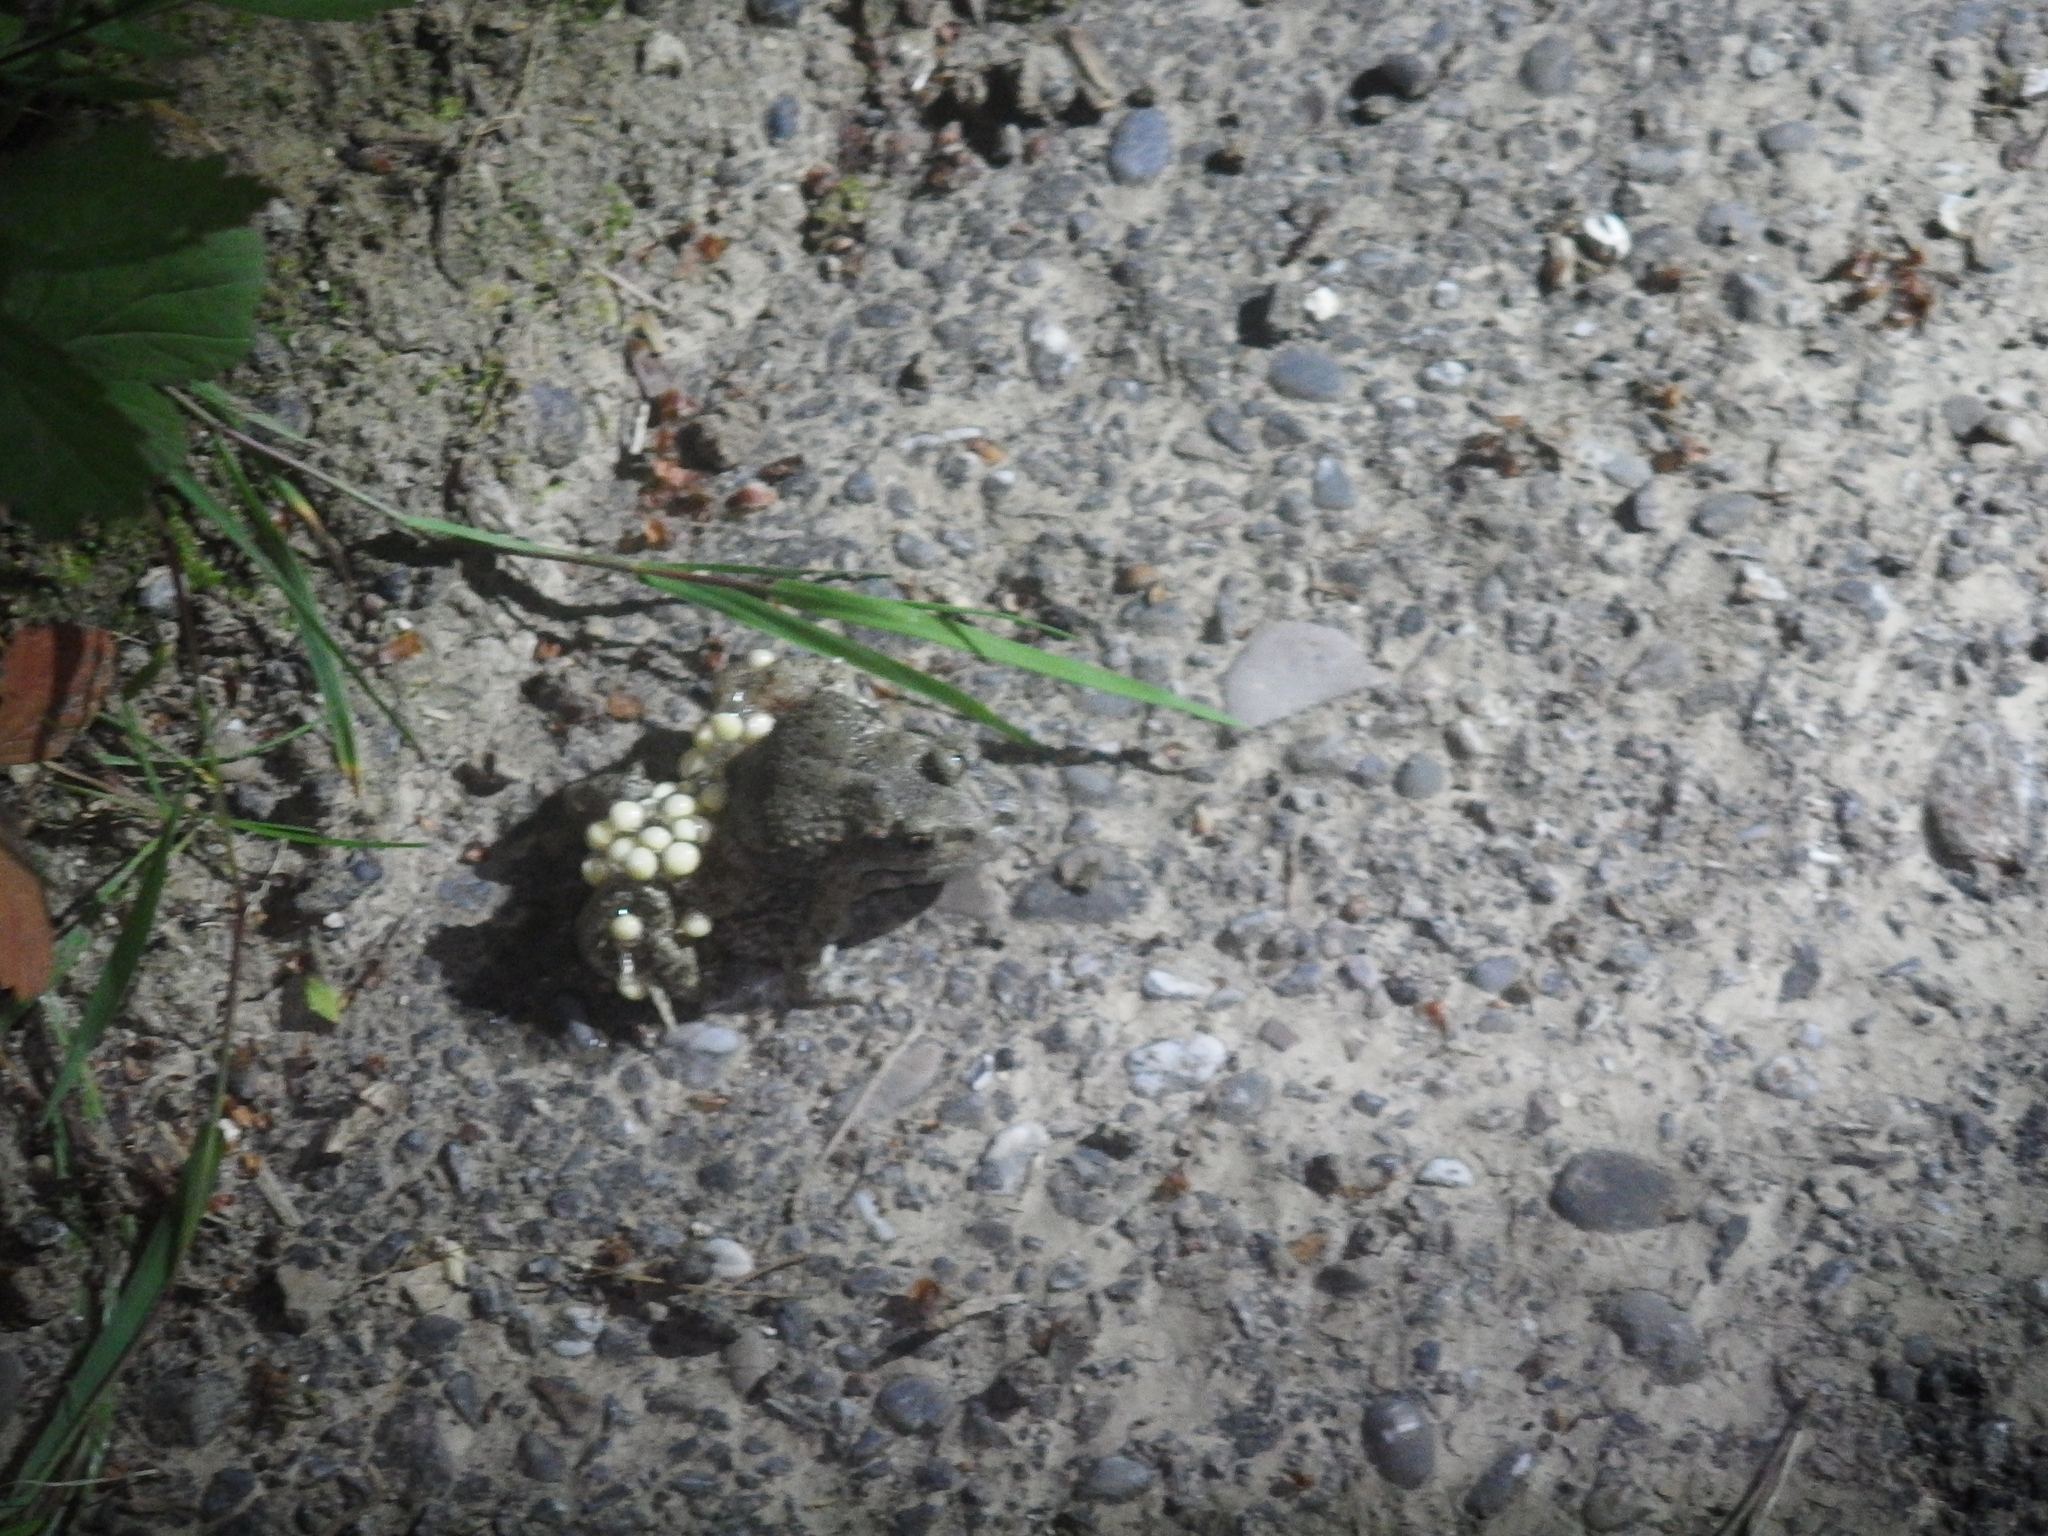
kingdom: Animalia
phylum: Chordata
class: Amphibia
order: Anura
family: Alytidae
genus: Alytes
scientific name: Alytes obstetricans
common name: Midwife toad
